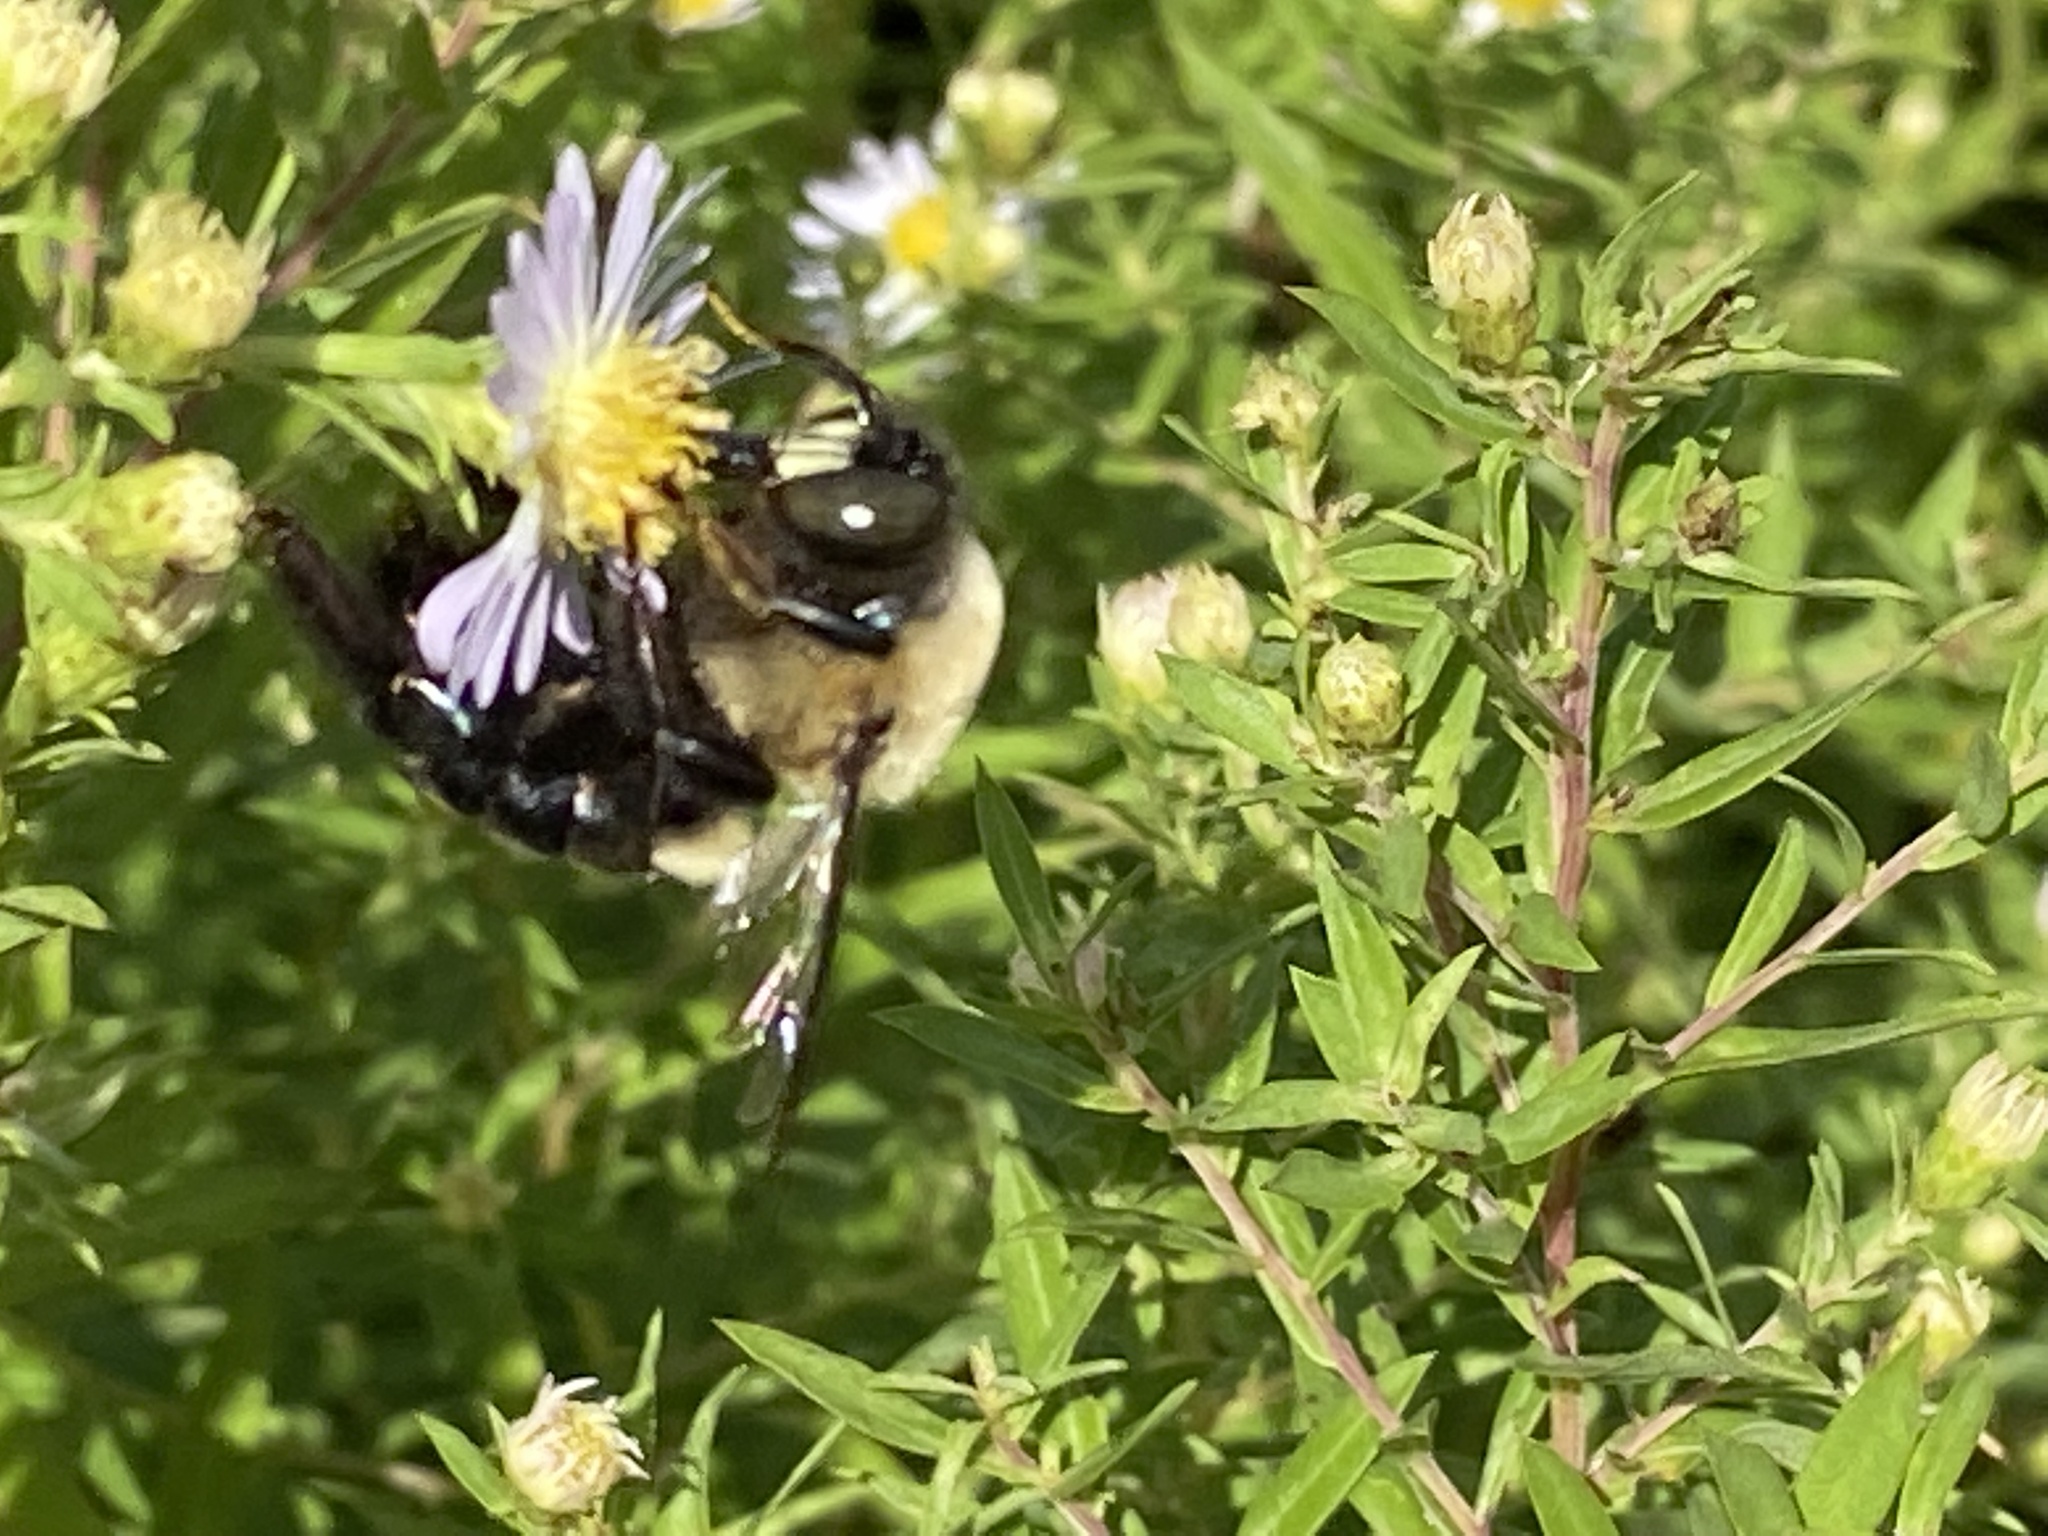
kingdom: Animalia
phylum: Arthropoda
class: Insecta
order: Hymenoptera
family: Apidae
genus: Xylocopa
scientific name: Xylocopa virginica
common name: Carpenter bee
